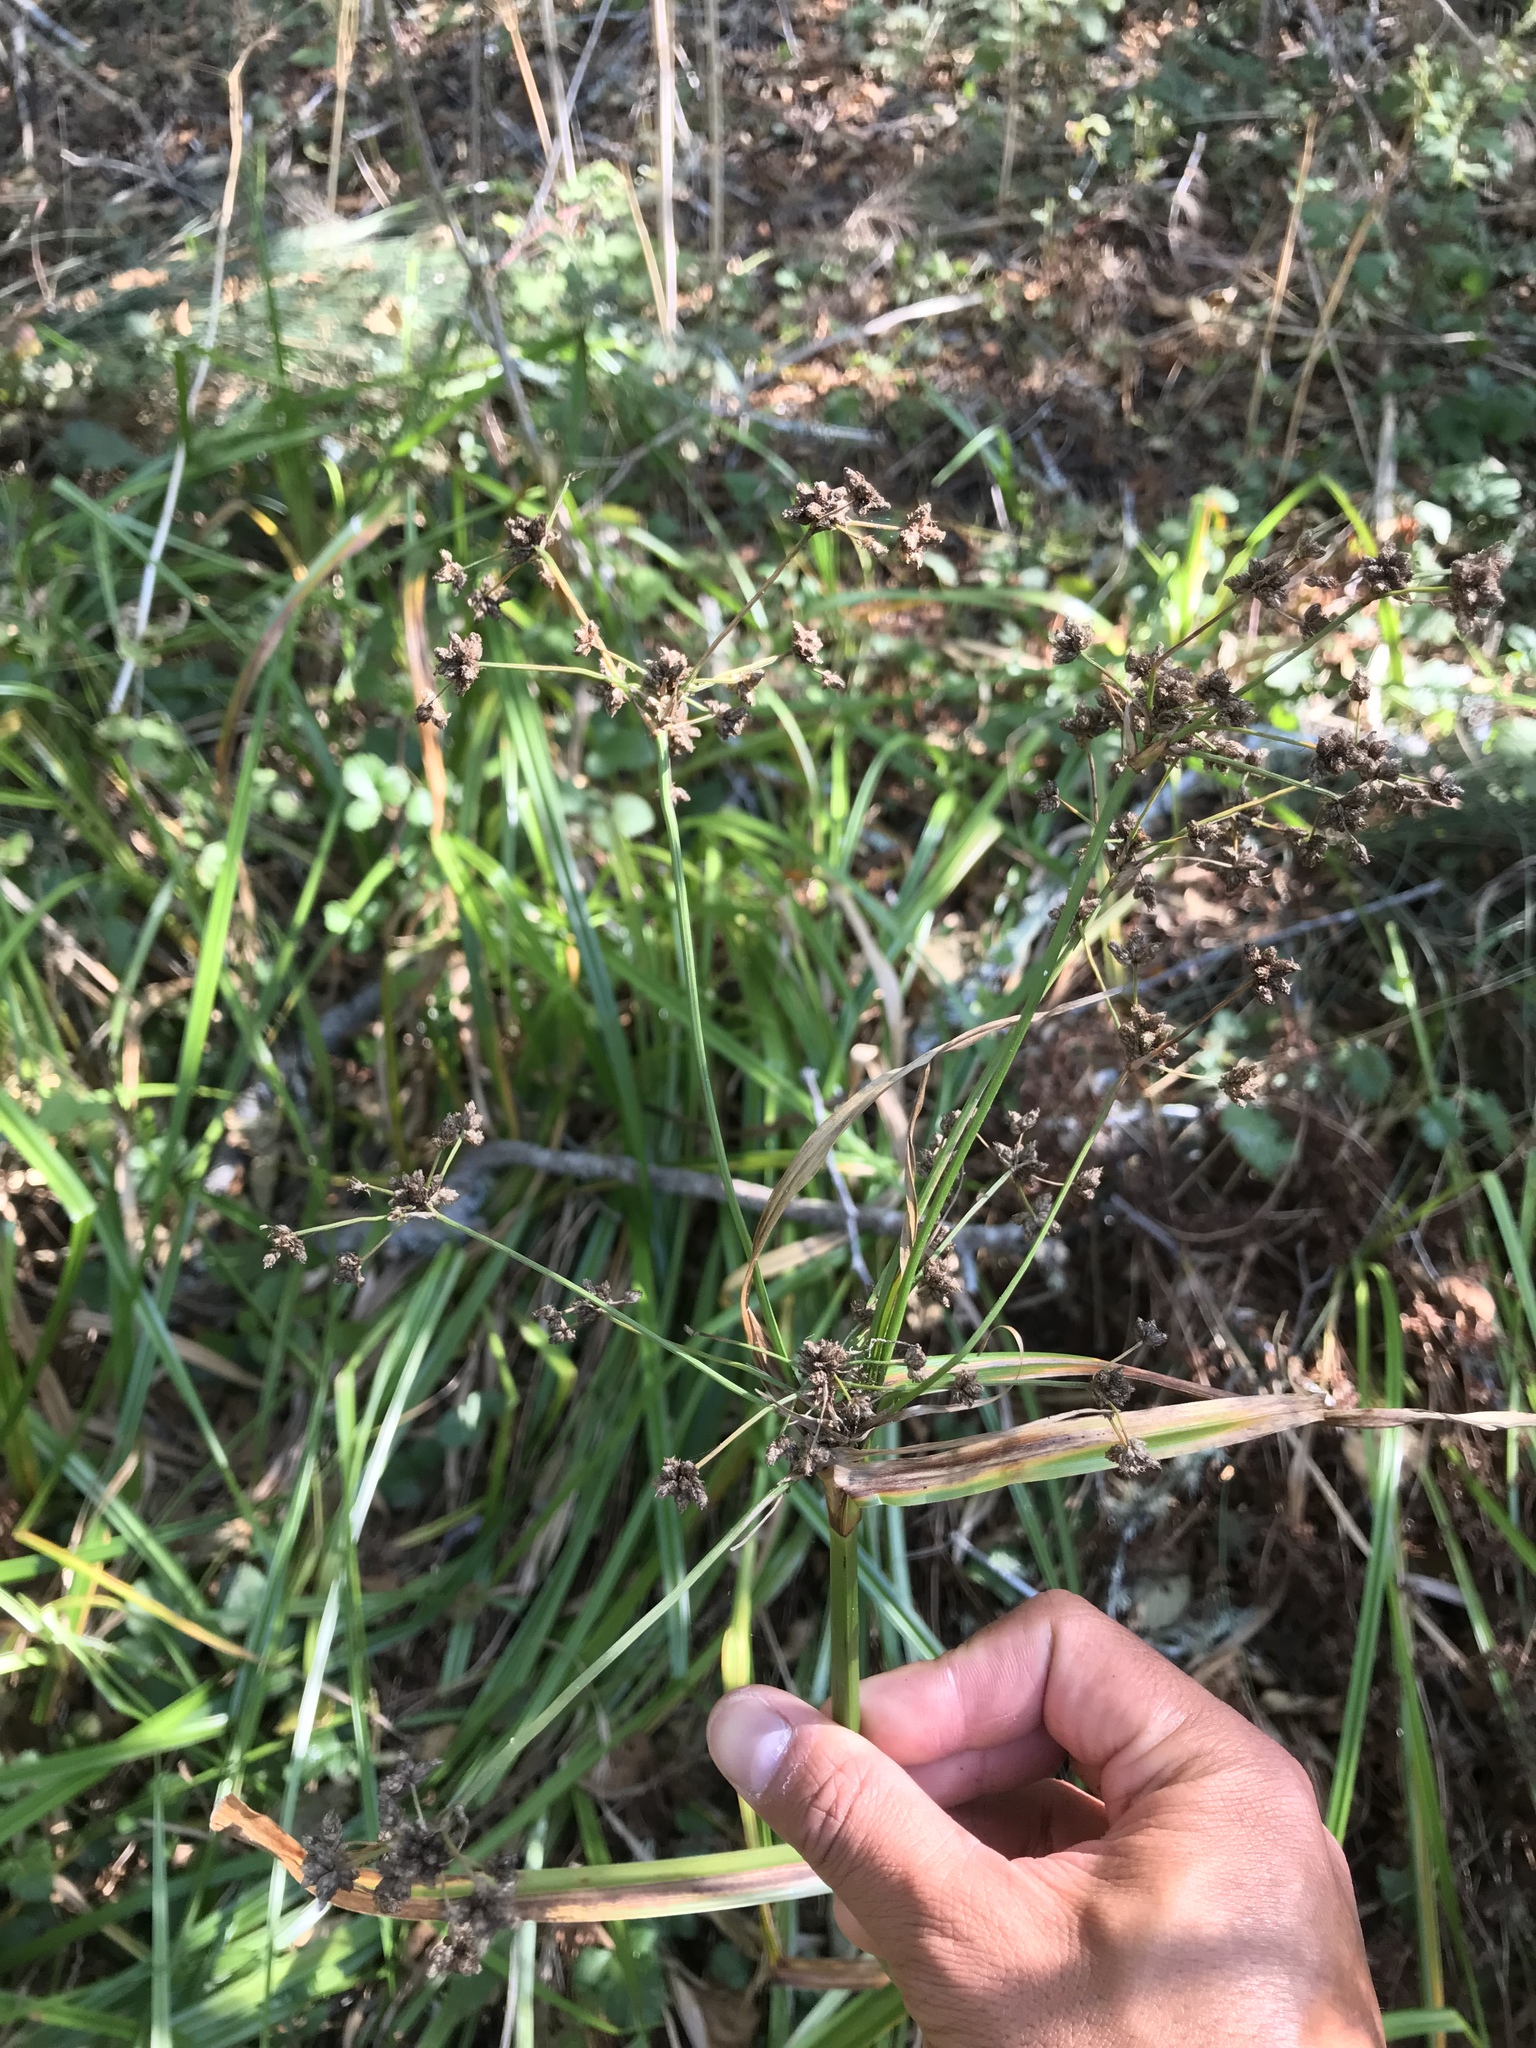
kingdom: Plantae
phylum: Tracheophyta
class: Liliopsida
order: Poales
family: Cyperaceae
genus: Scirpus
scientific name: Scirpus microcarpus
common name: Panicled bulrush
